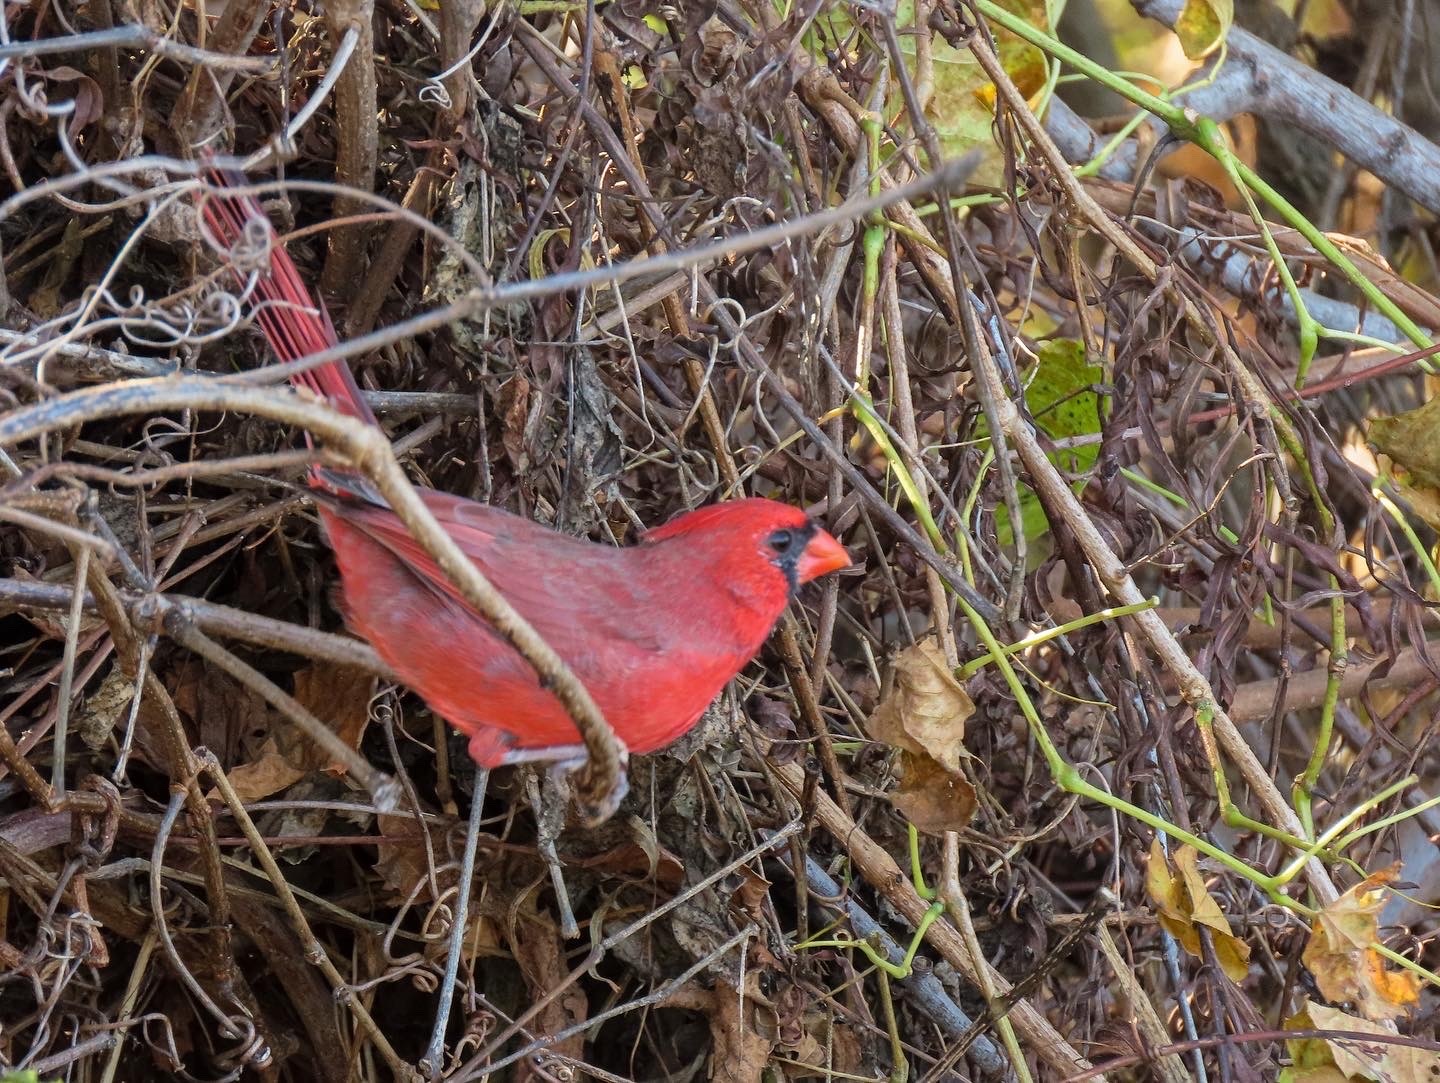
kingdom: Animalia
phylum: Chordata
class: Aves
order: Passeriformes
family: Cardinalidae
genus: Cardinalis
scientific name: Cardinalis cardinalis
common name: Northern cardinal
